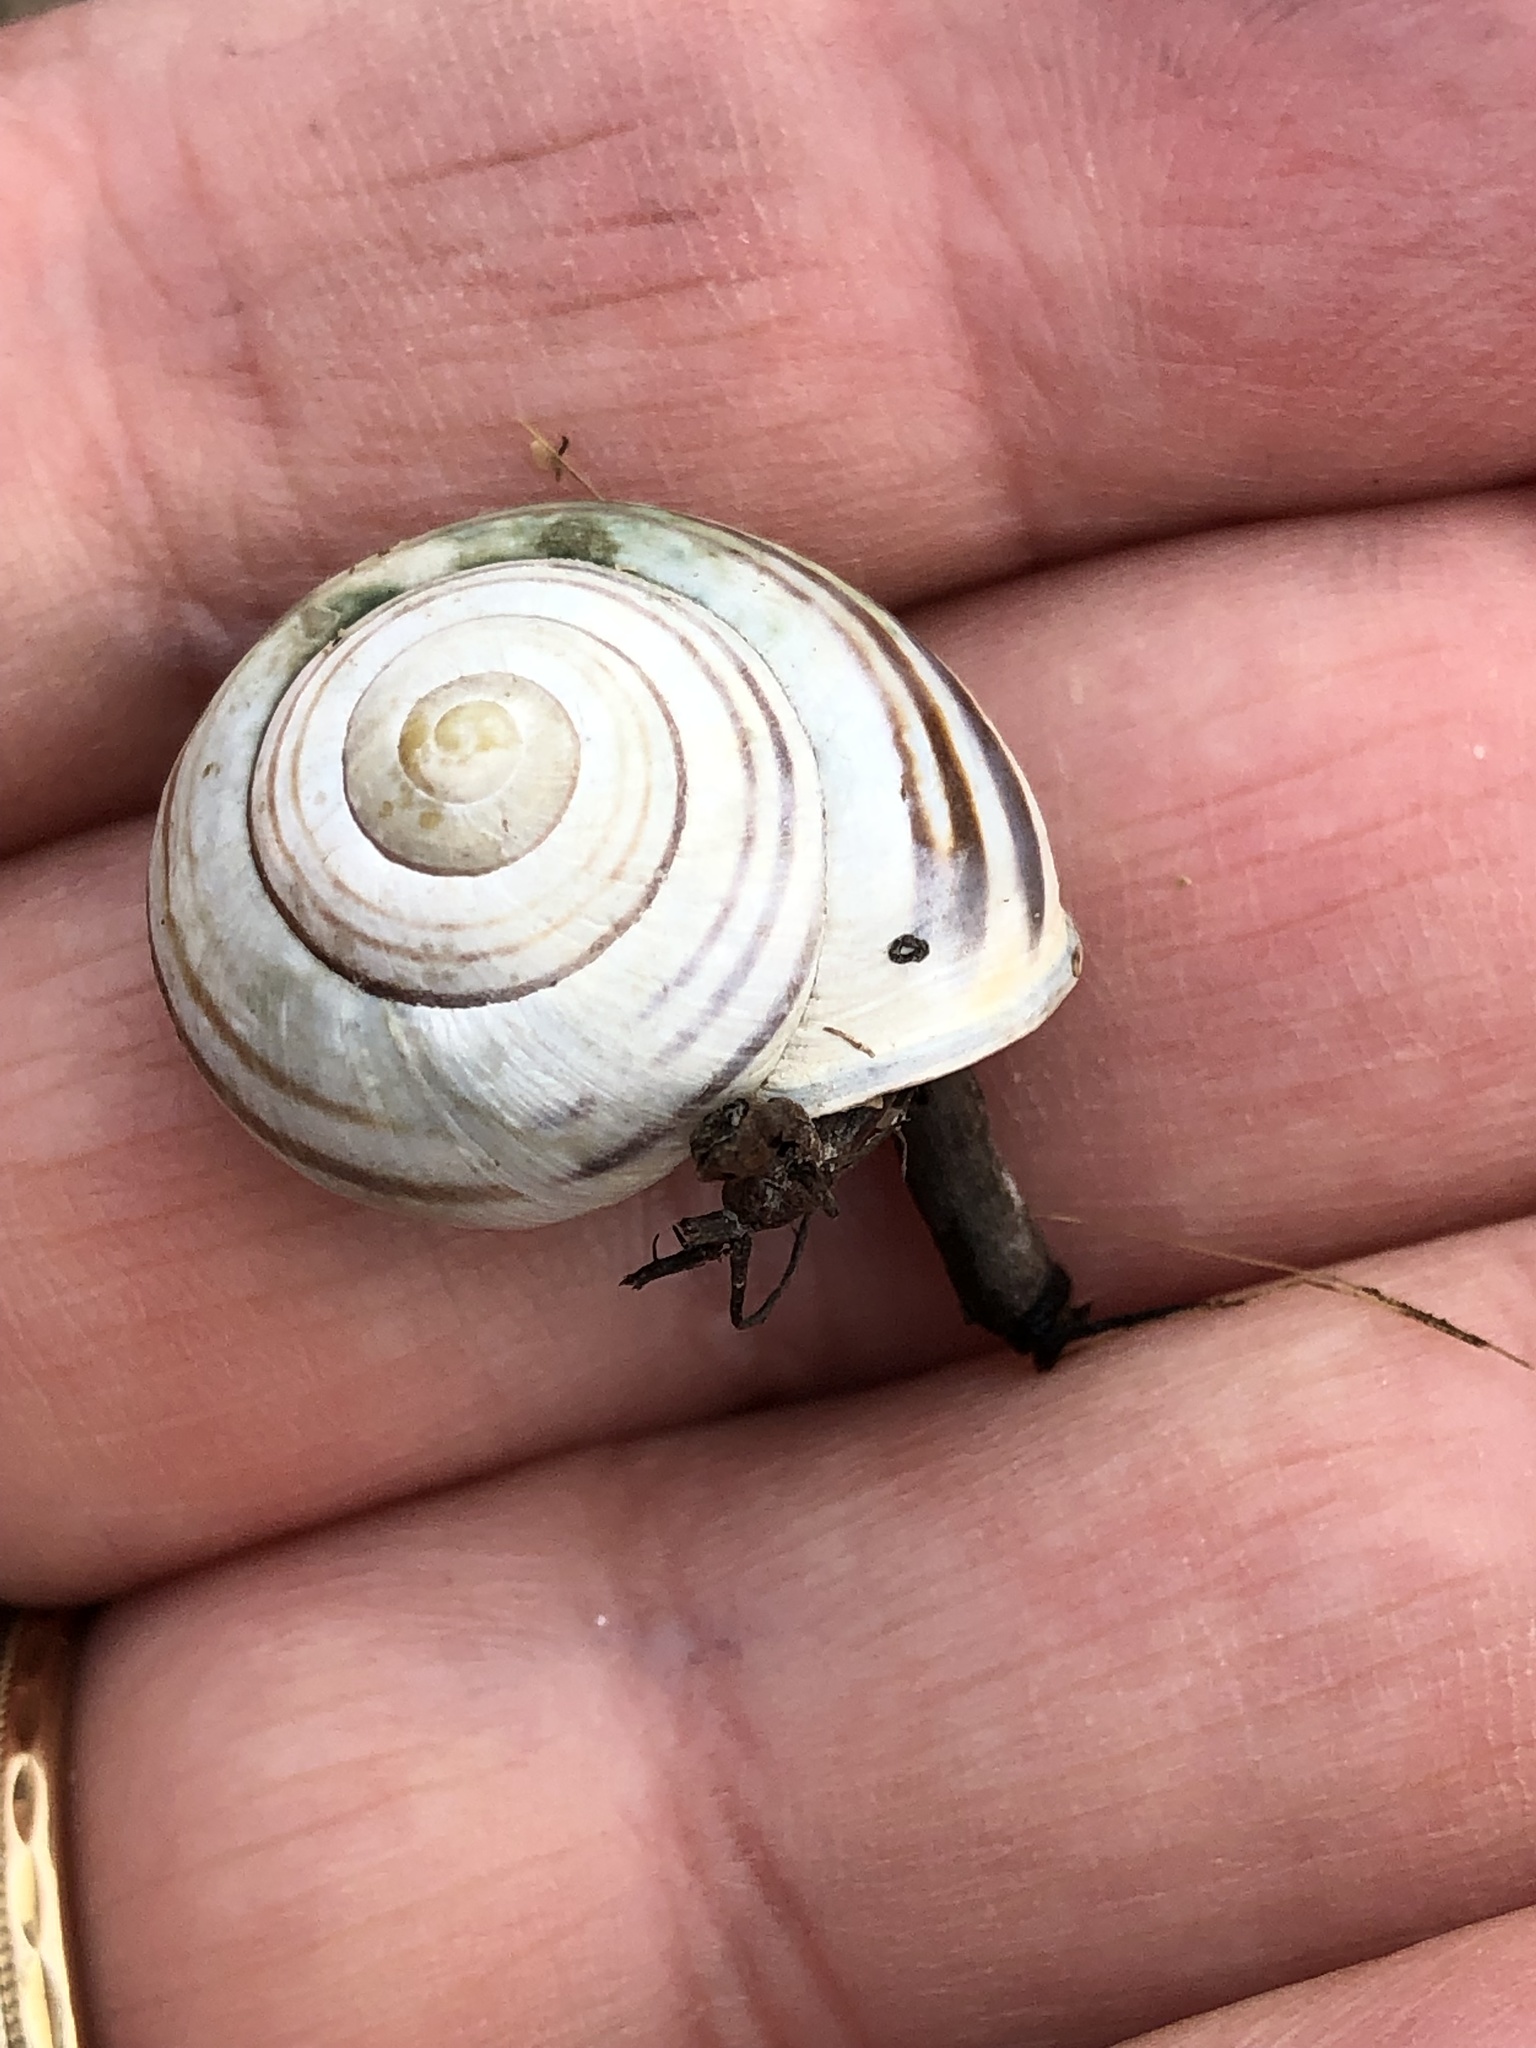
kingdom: Animalia
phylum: Mollusca
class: Gastropoda
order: Stylommatophora
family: Helicidae
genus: Cepaea
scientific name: Cepaea nemoralis
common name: Grovesnail
